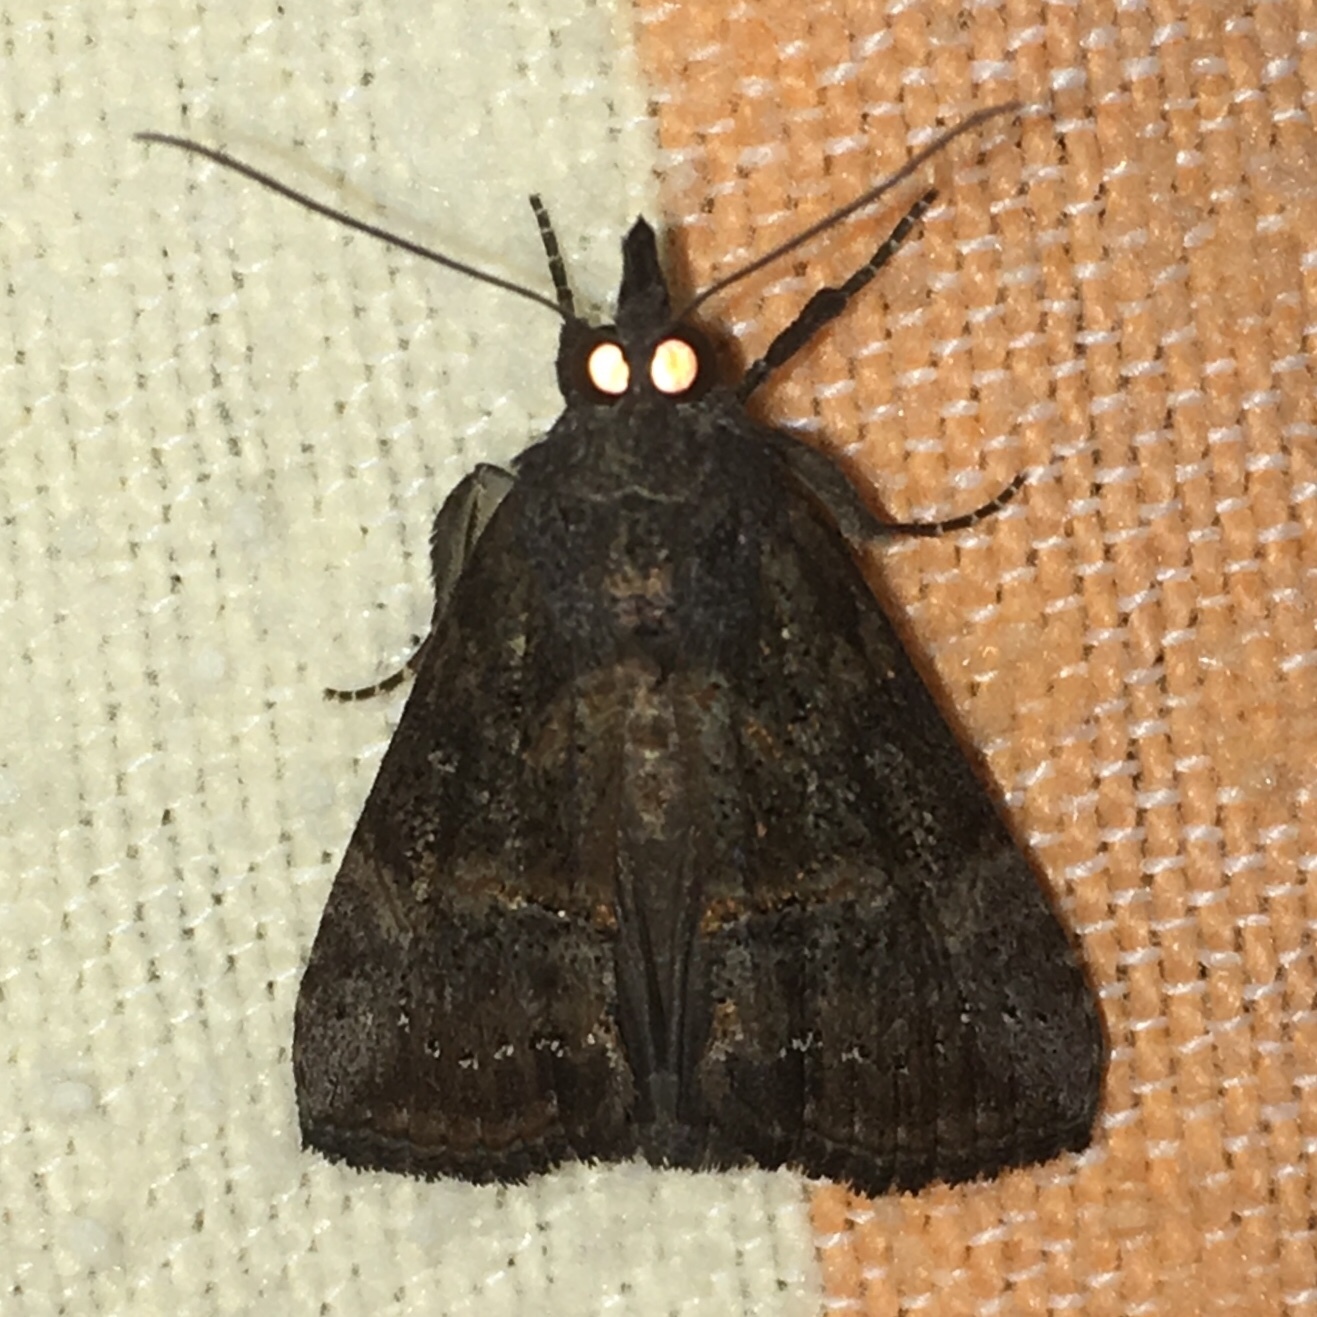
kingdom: Animalia
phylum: Arthropoda
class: Insecta
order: Lepidoptera
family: Erebidae
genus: Hypena
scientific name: Hypena scabra
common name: Green cloverworm
